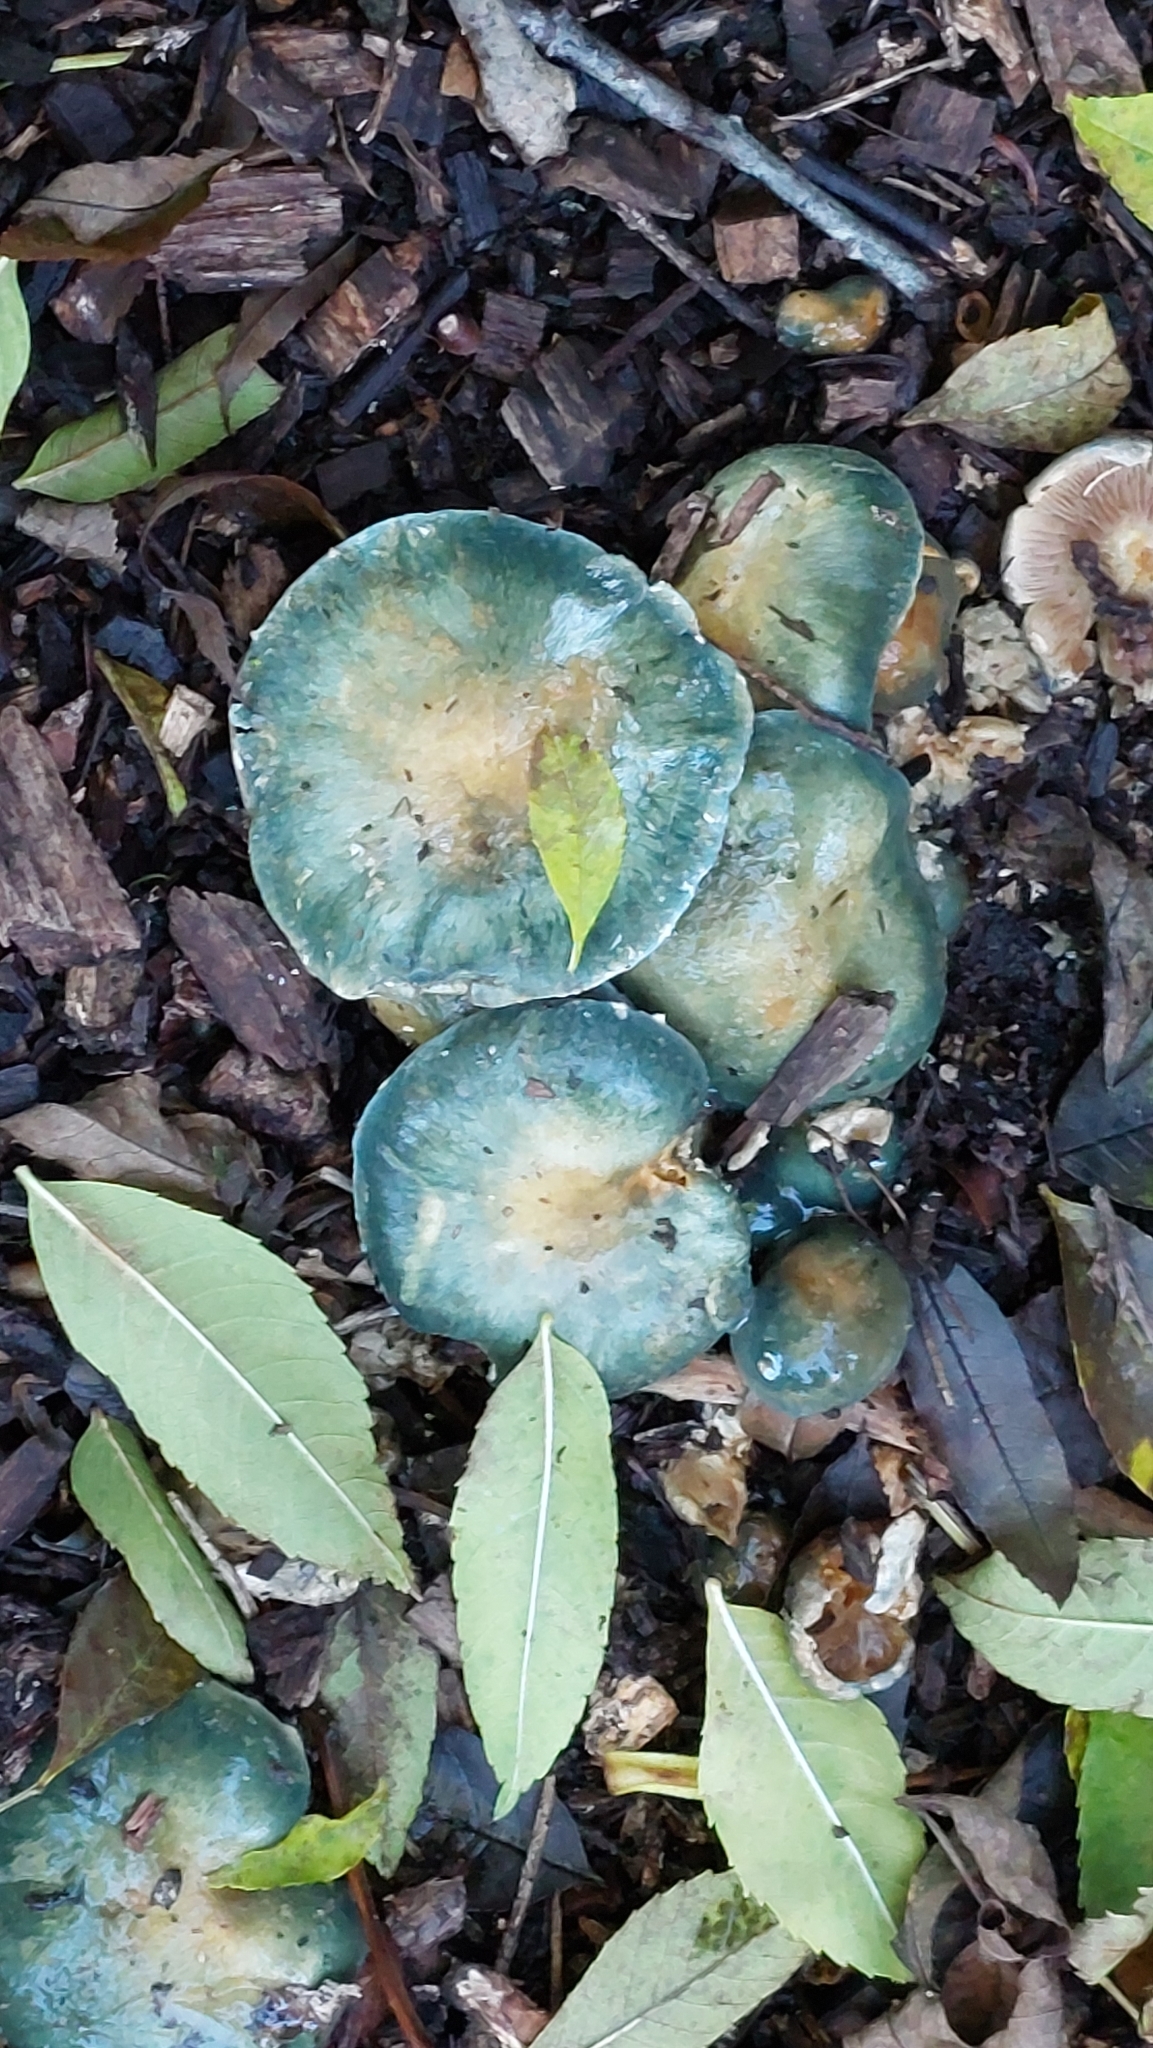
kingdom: Fungi
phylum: Basidiomycota
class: Agaricomycetes
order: Agaricales
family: Strophariaceae
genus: Stropharia
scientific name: Stropharia aeruginosa
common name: Verdigris roundhead
